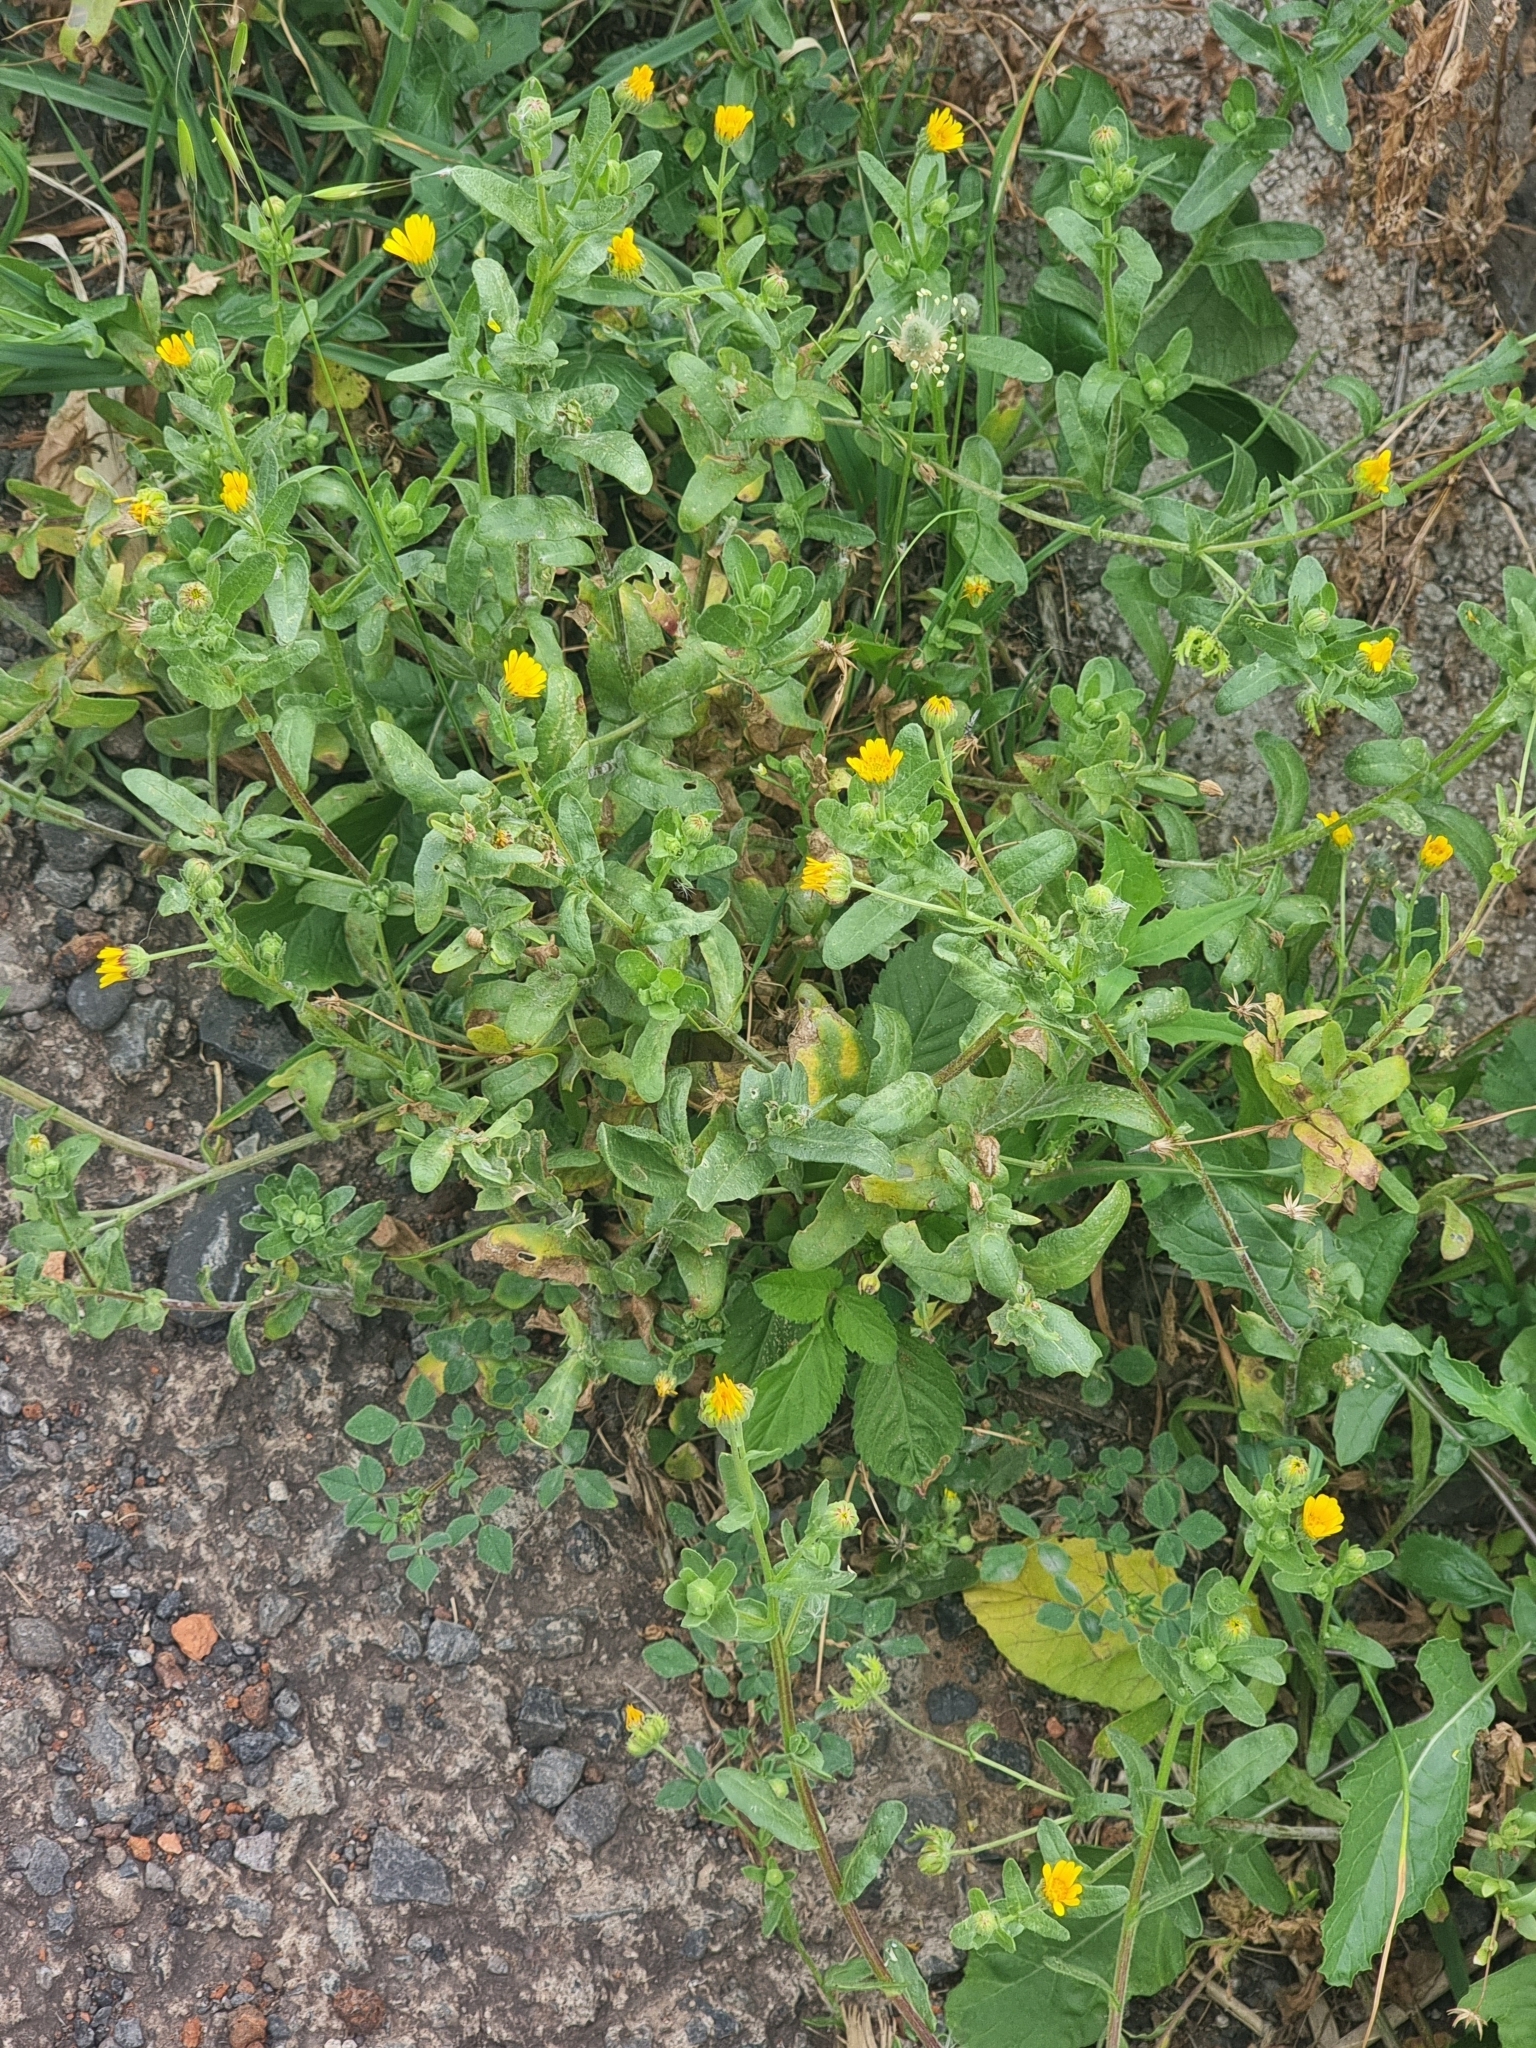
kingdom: Plantae
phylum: Tracheophyta
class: Magnoliopsida
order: Asterales
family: Asteraceae
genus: Calendula
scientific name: Calendula arvensis
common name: Field marigold
